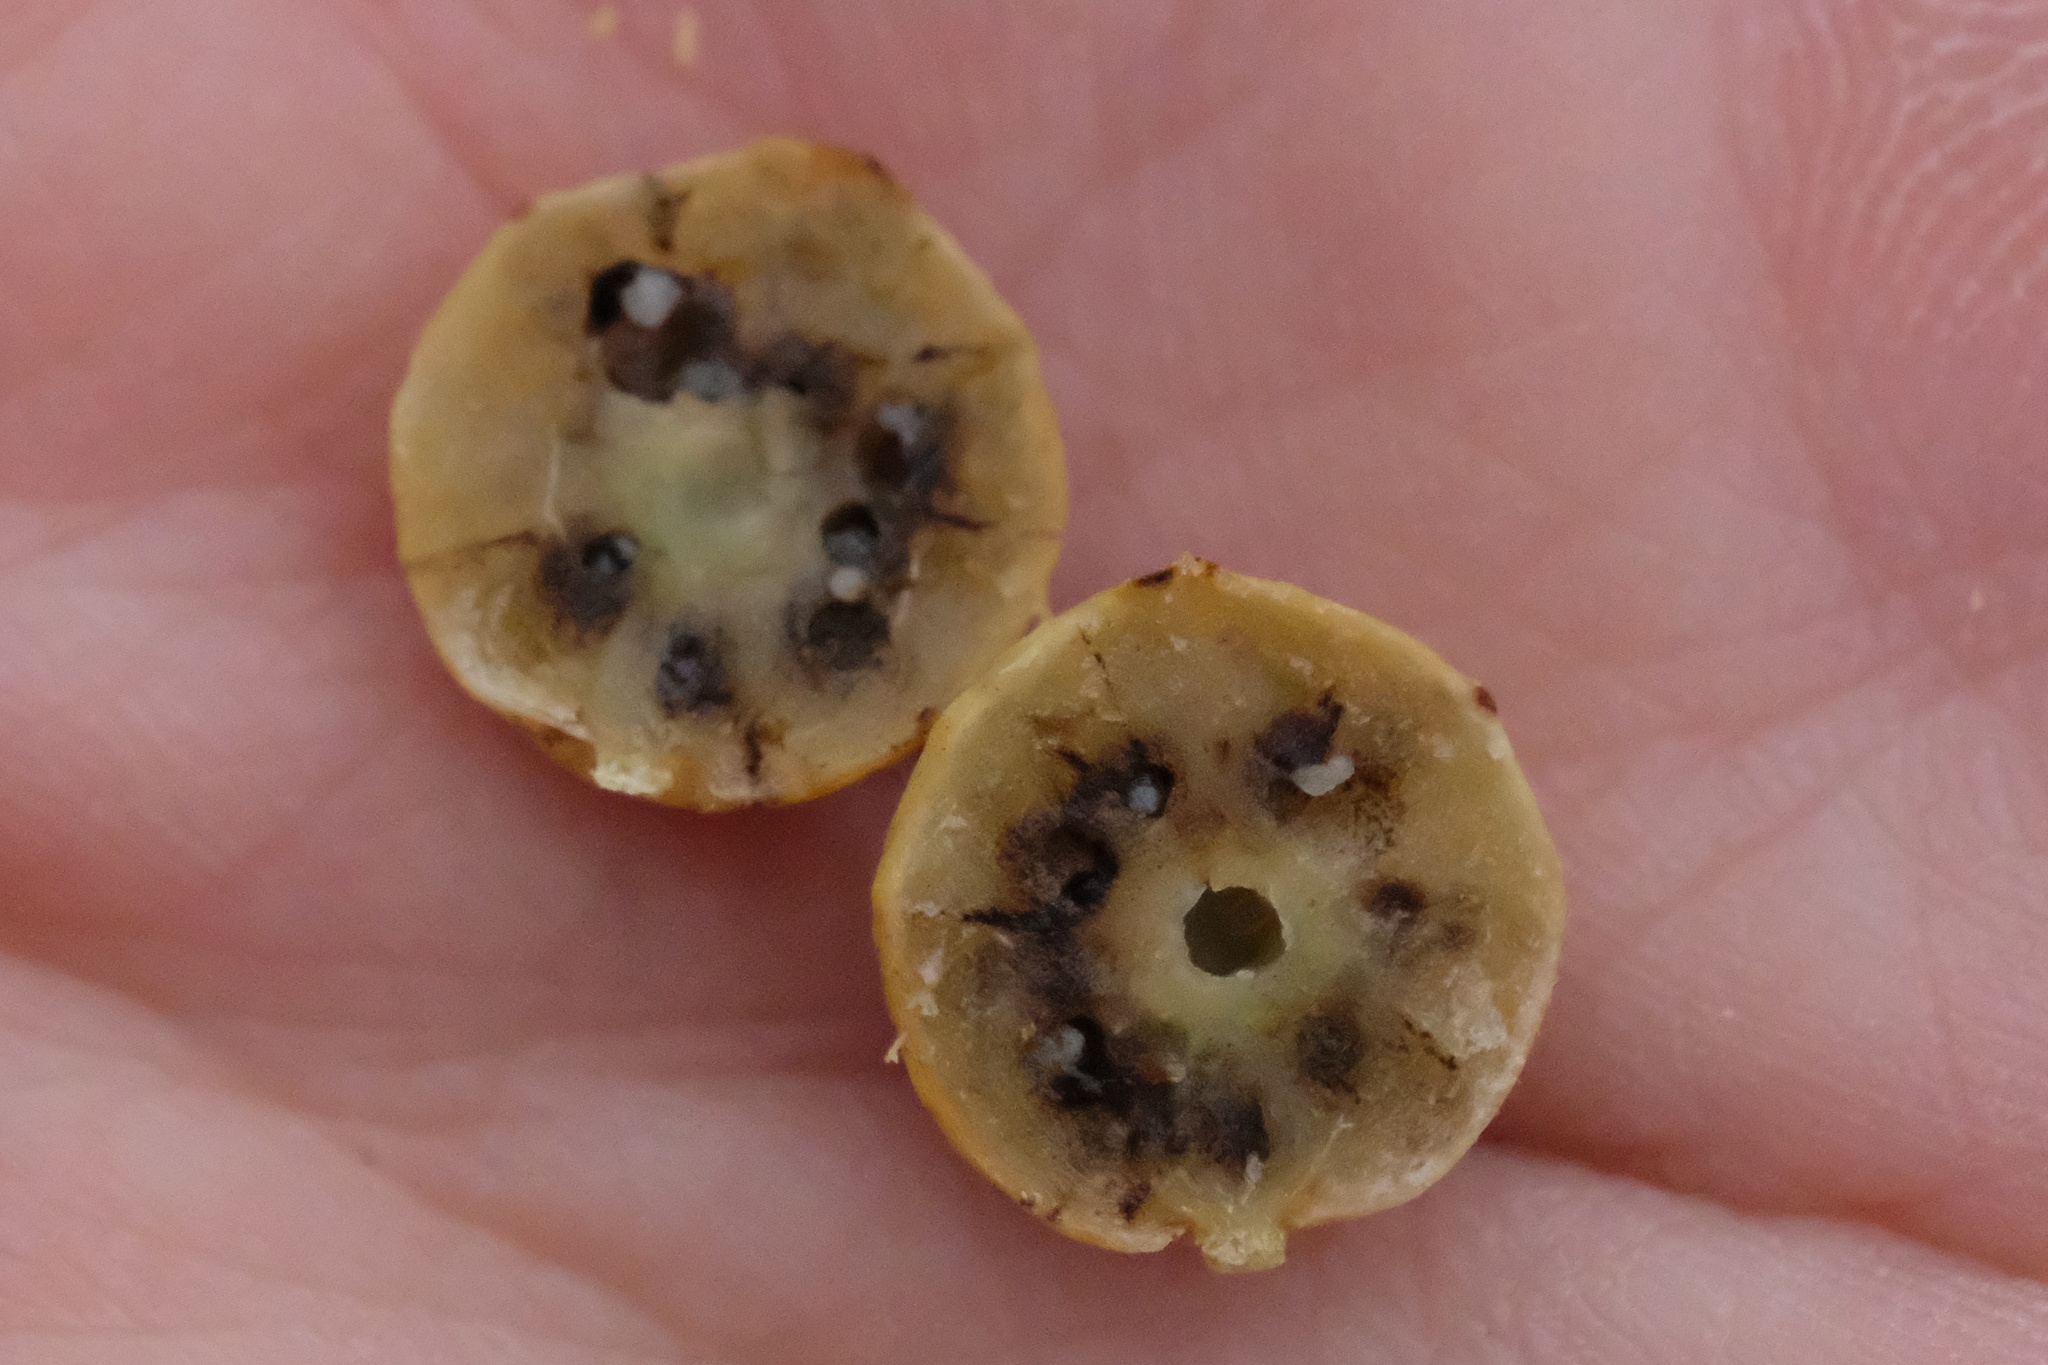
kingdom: Animalia
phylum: Arthropoda
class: Insecta
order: Hymenoptera
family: Cynipidae
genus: Burnettweldia
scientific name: Burnettweldia
